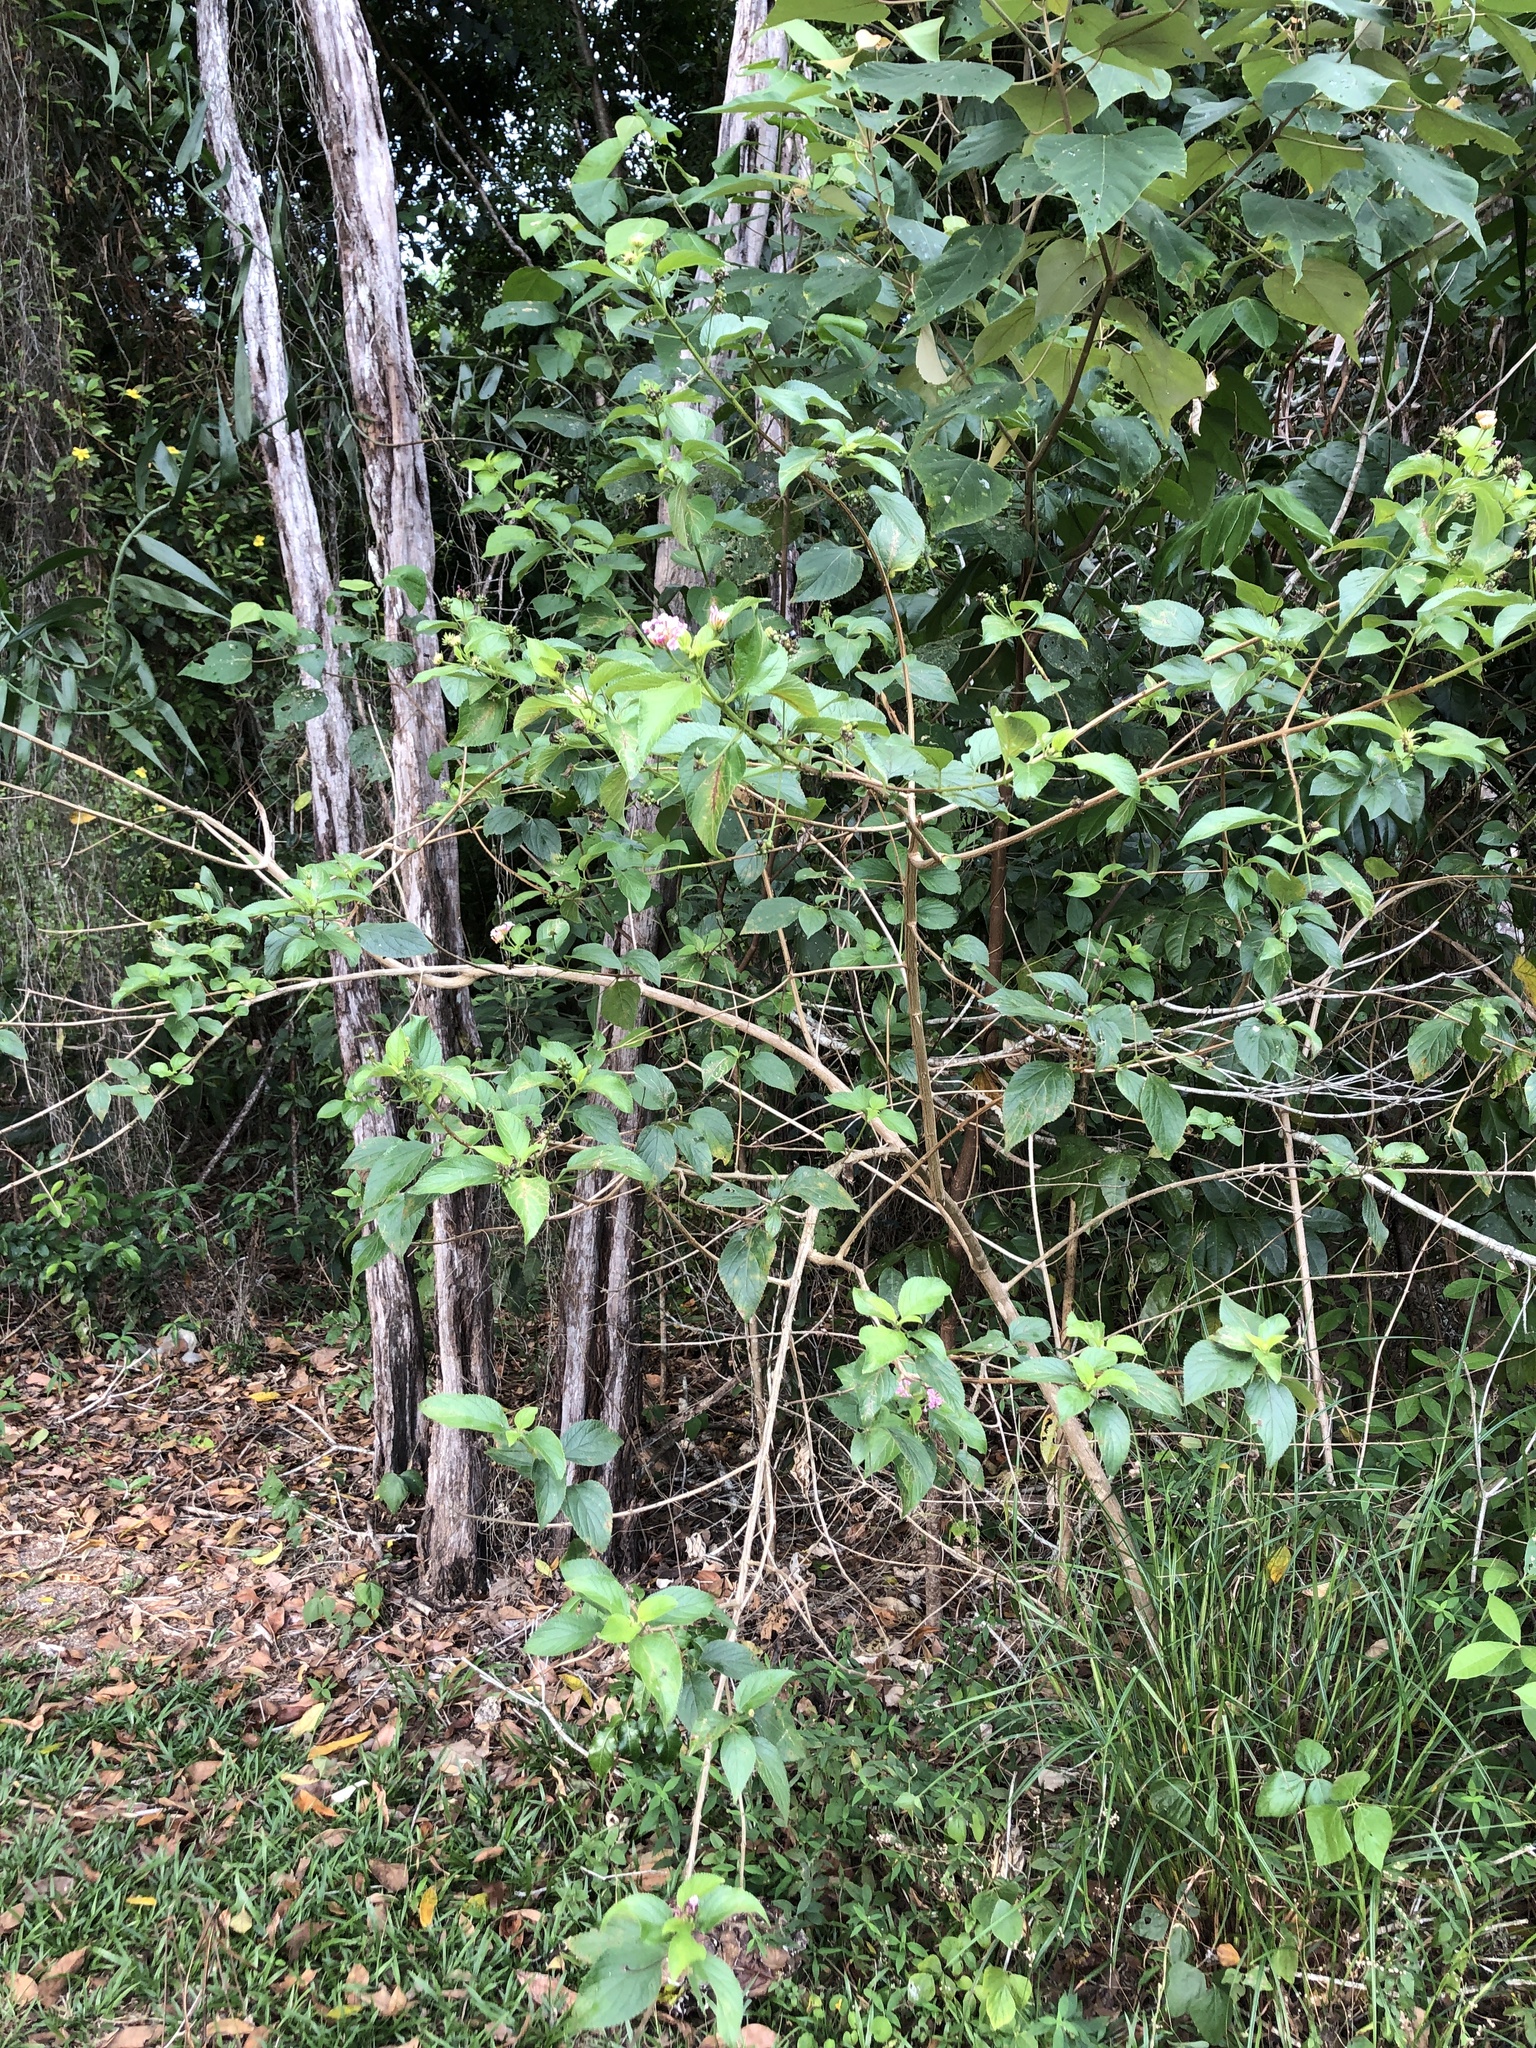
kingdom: Plantae
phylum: Tracheophyta
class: Magnoliopsida
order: Lamiales
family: Verbenaceae
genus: Lantana
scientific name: Lantana camara
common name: Lantana
